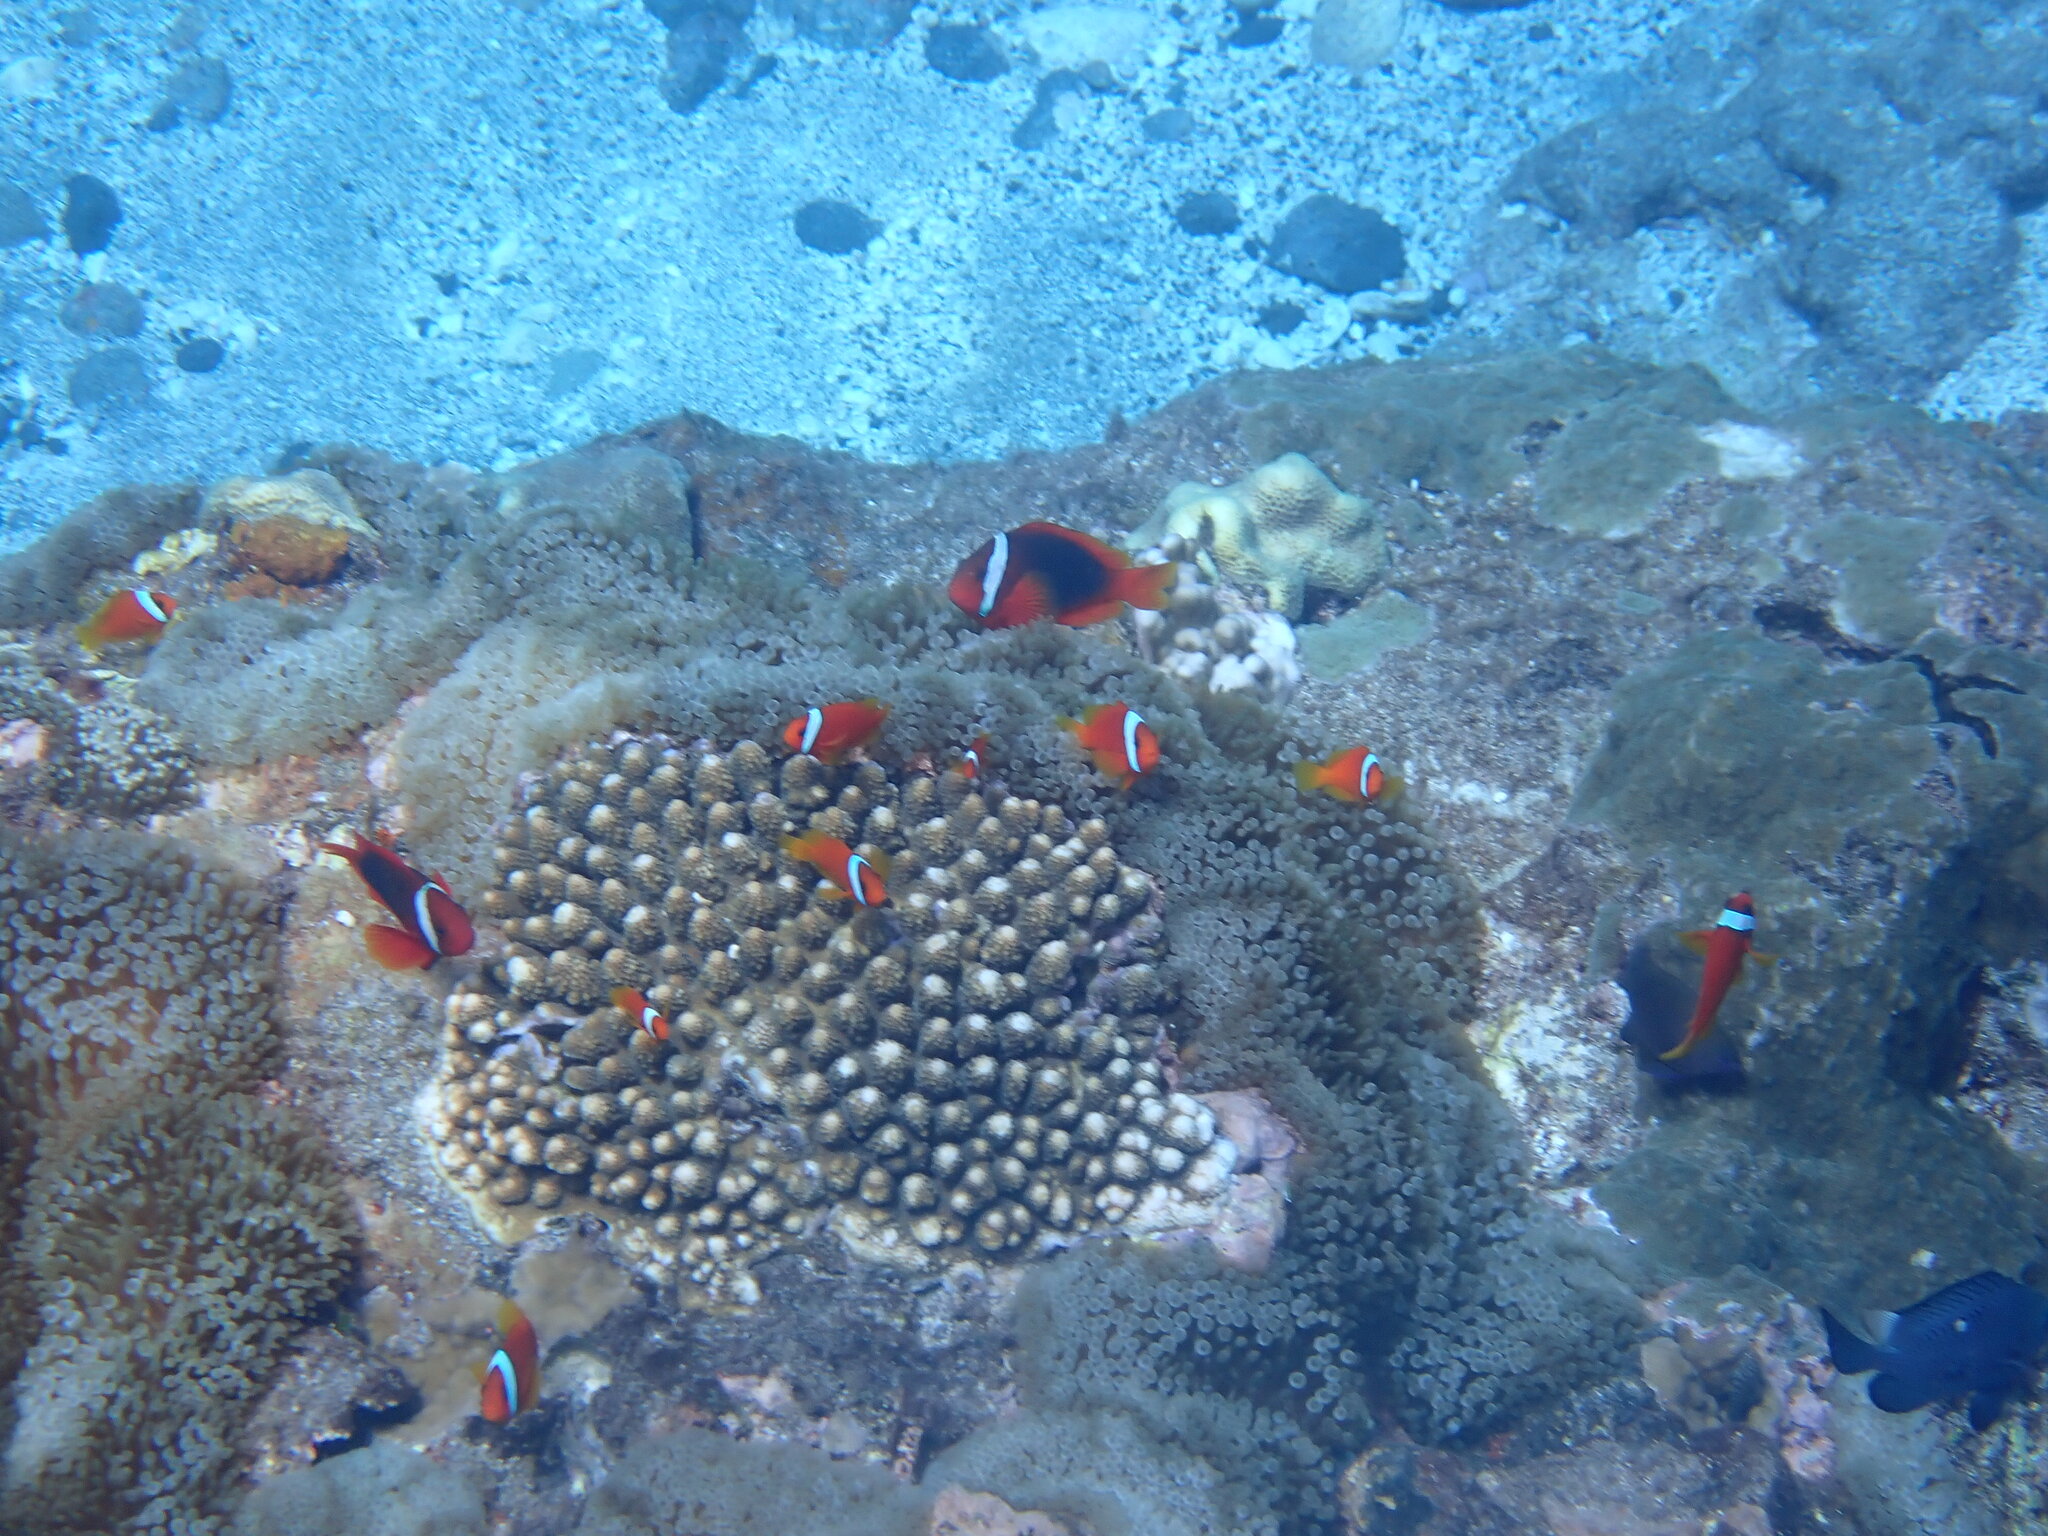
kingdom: Animalia
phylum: Chordata
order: Perciformes
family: Pomacentridae
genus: Amphiprion
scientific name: Amphiprion frenatus
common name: Tomato anemonefish
